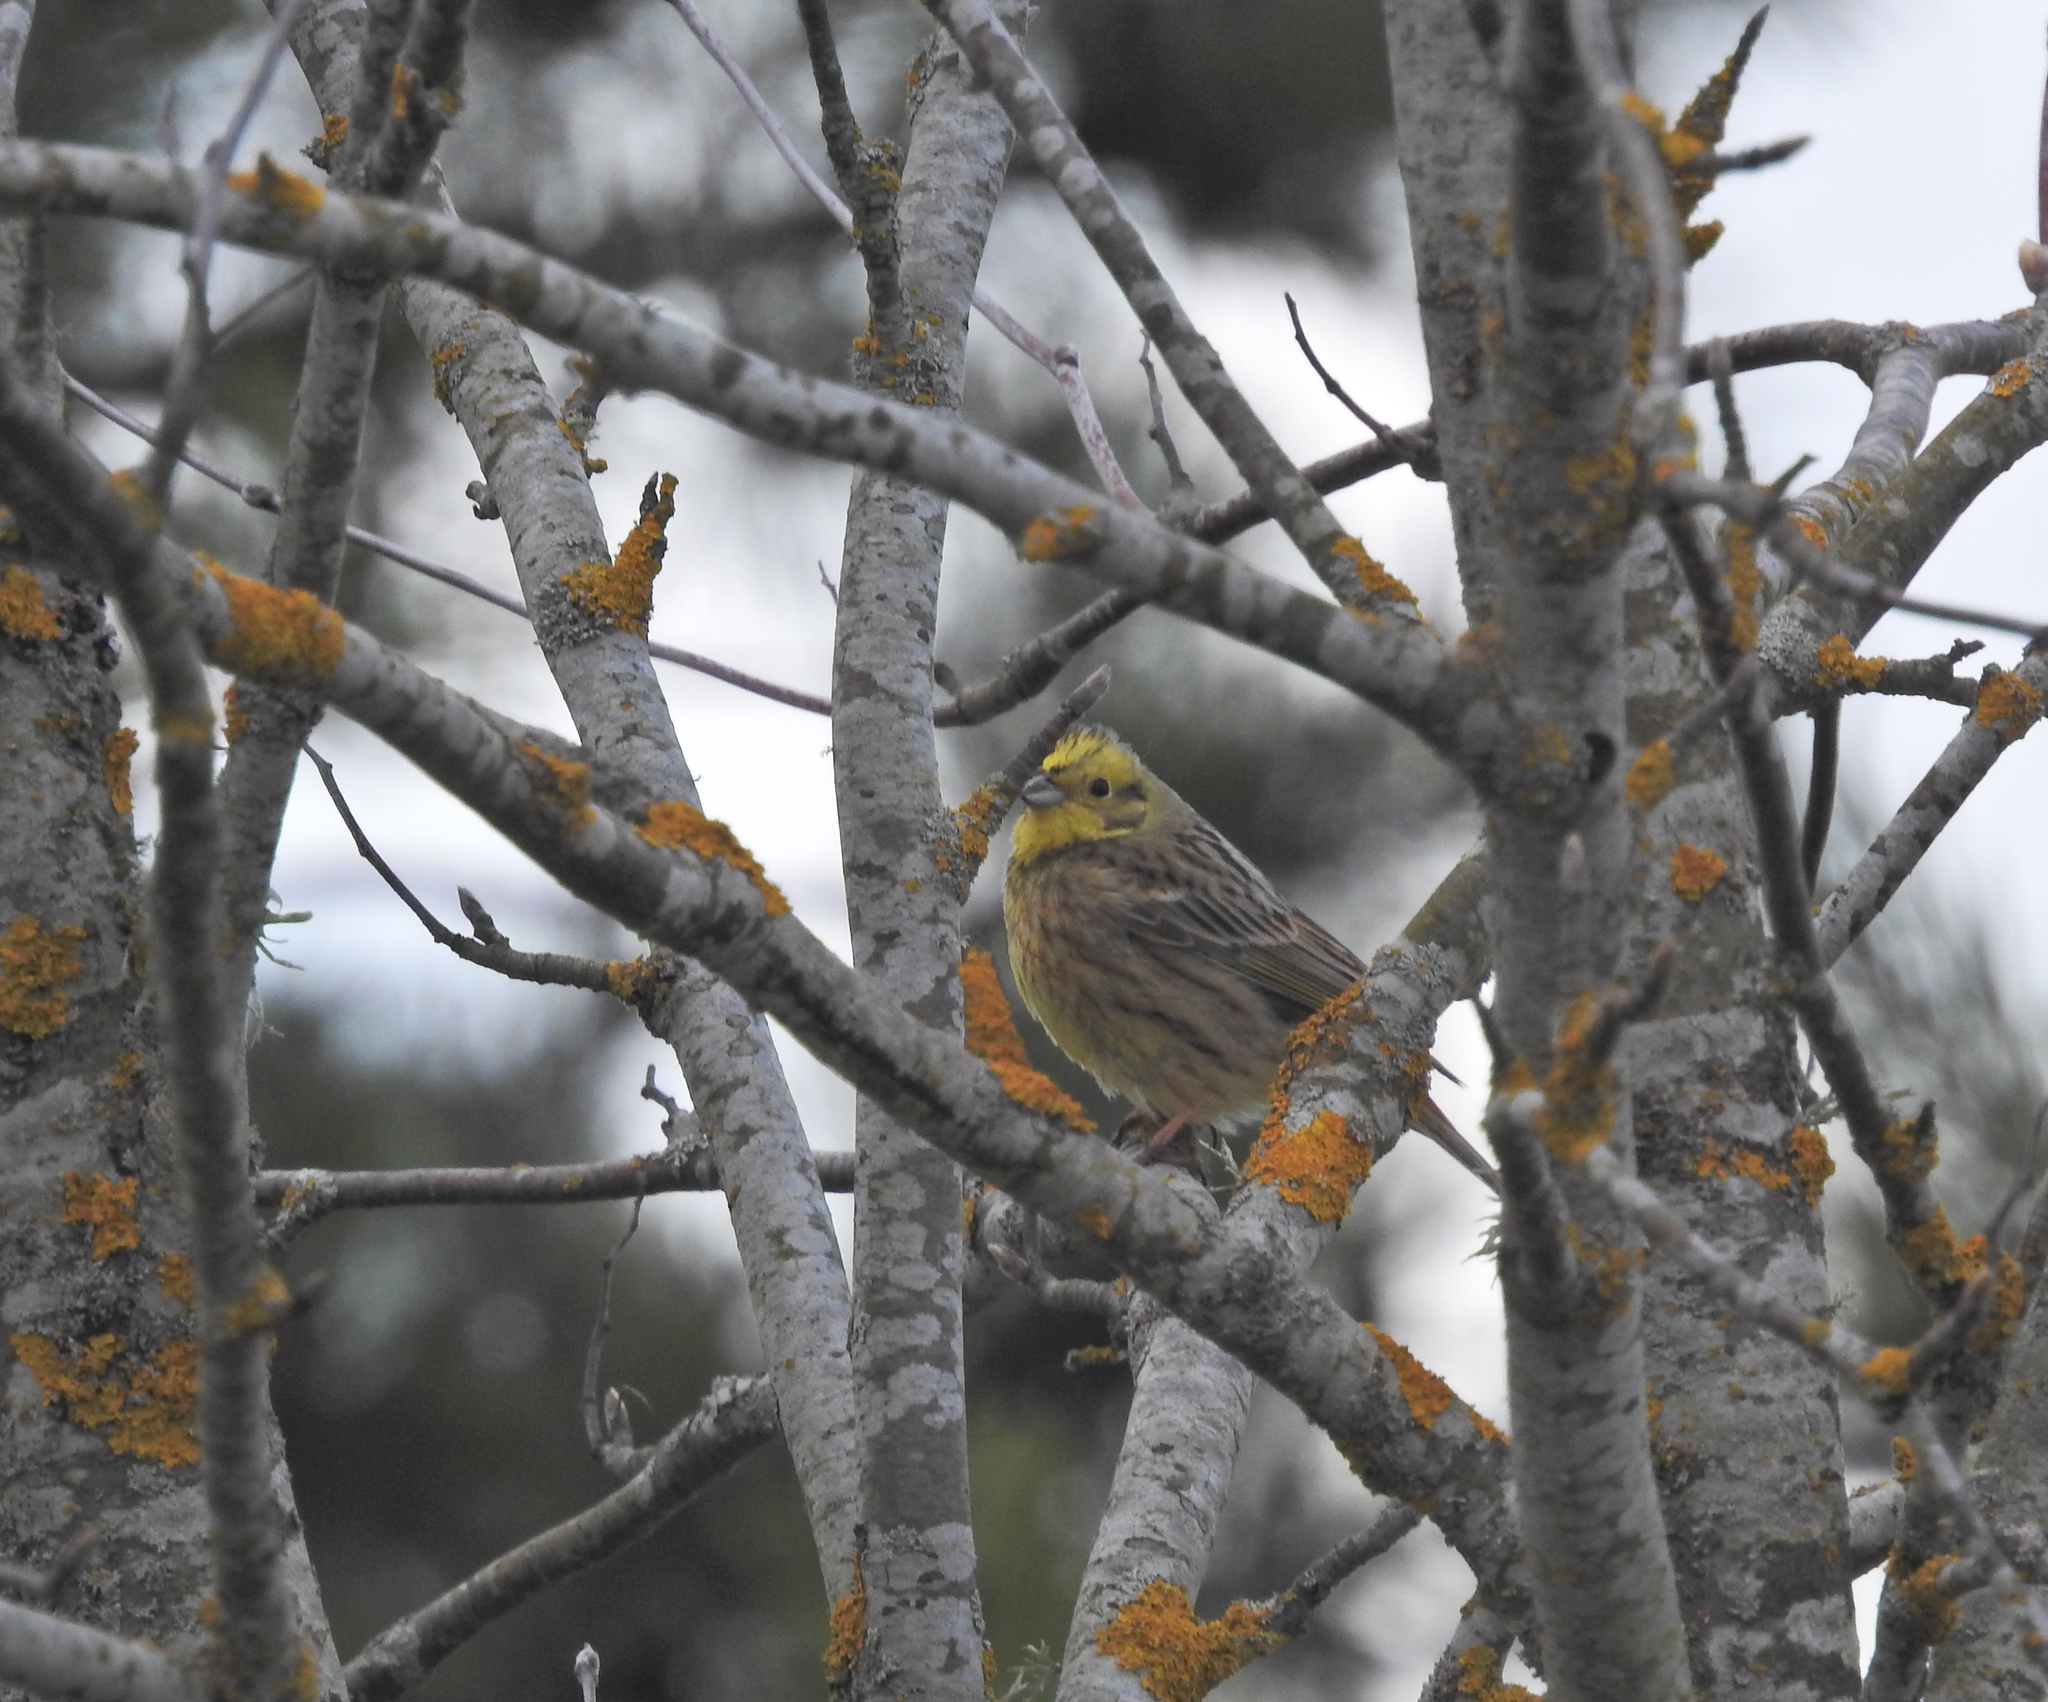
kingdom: Animalia
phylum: Chordata
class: Aves
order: Passeriformes
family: Emberizidae
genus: Emberiza
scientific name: Emberiza citrinella
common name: Yellowhammer
